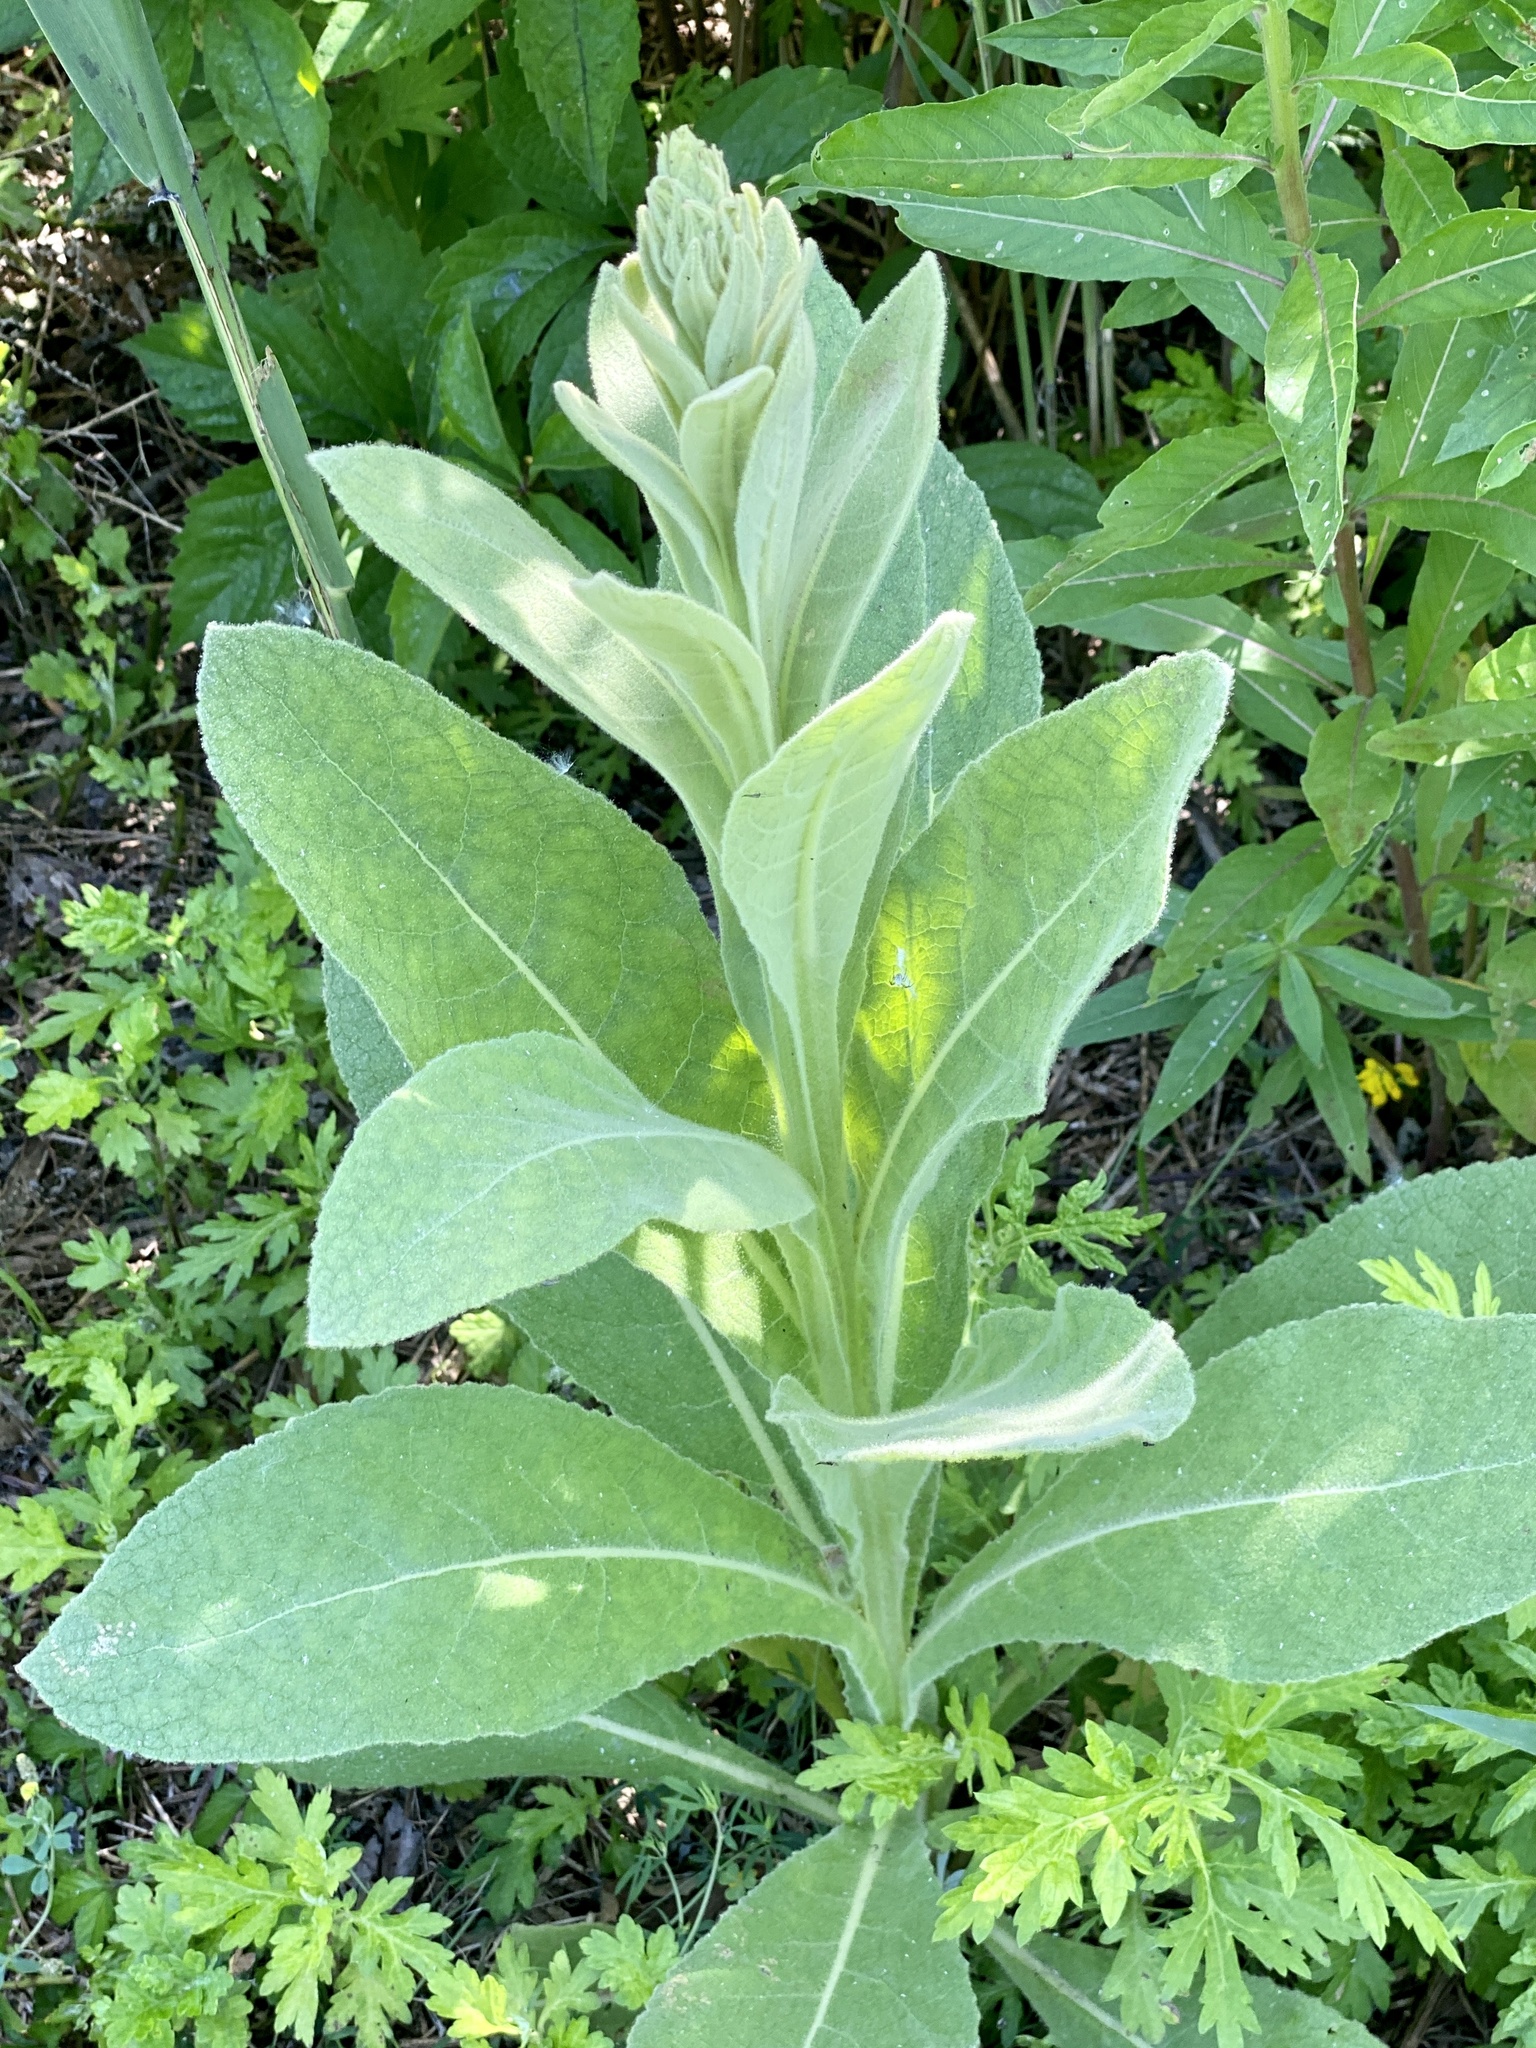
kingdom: Plantae
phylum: Tracheophyta
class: Magnoliopsida
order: Lamiales
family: Scrophulariaceae
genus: Verbascum
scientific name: Verbascum thapsus
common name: Common mullein
